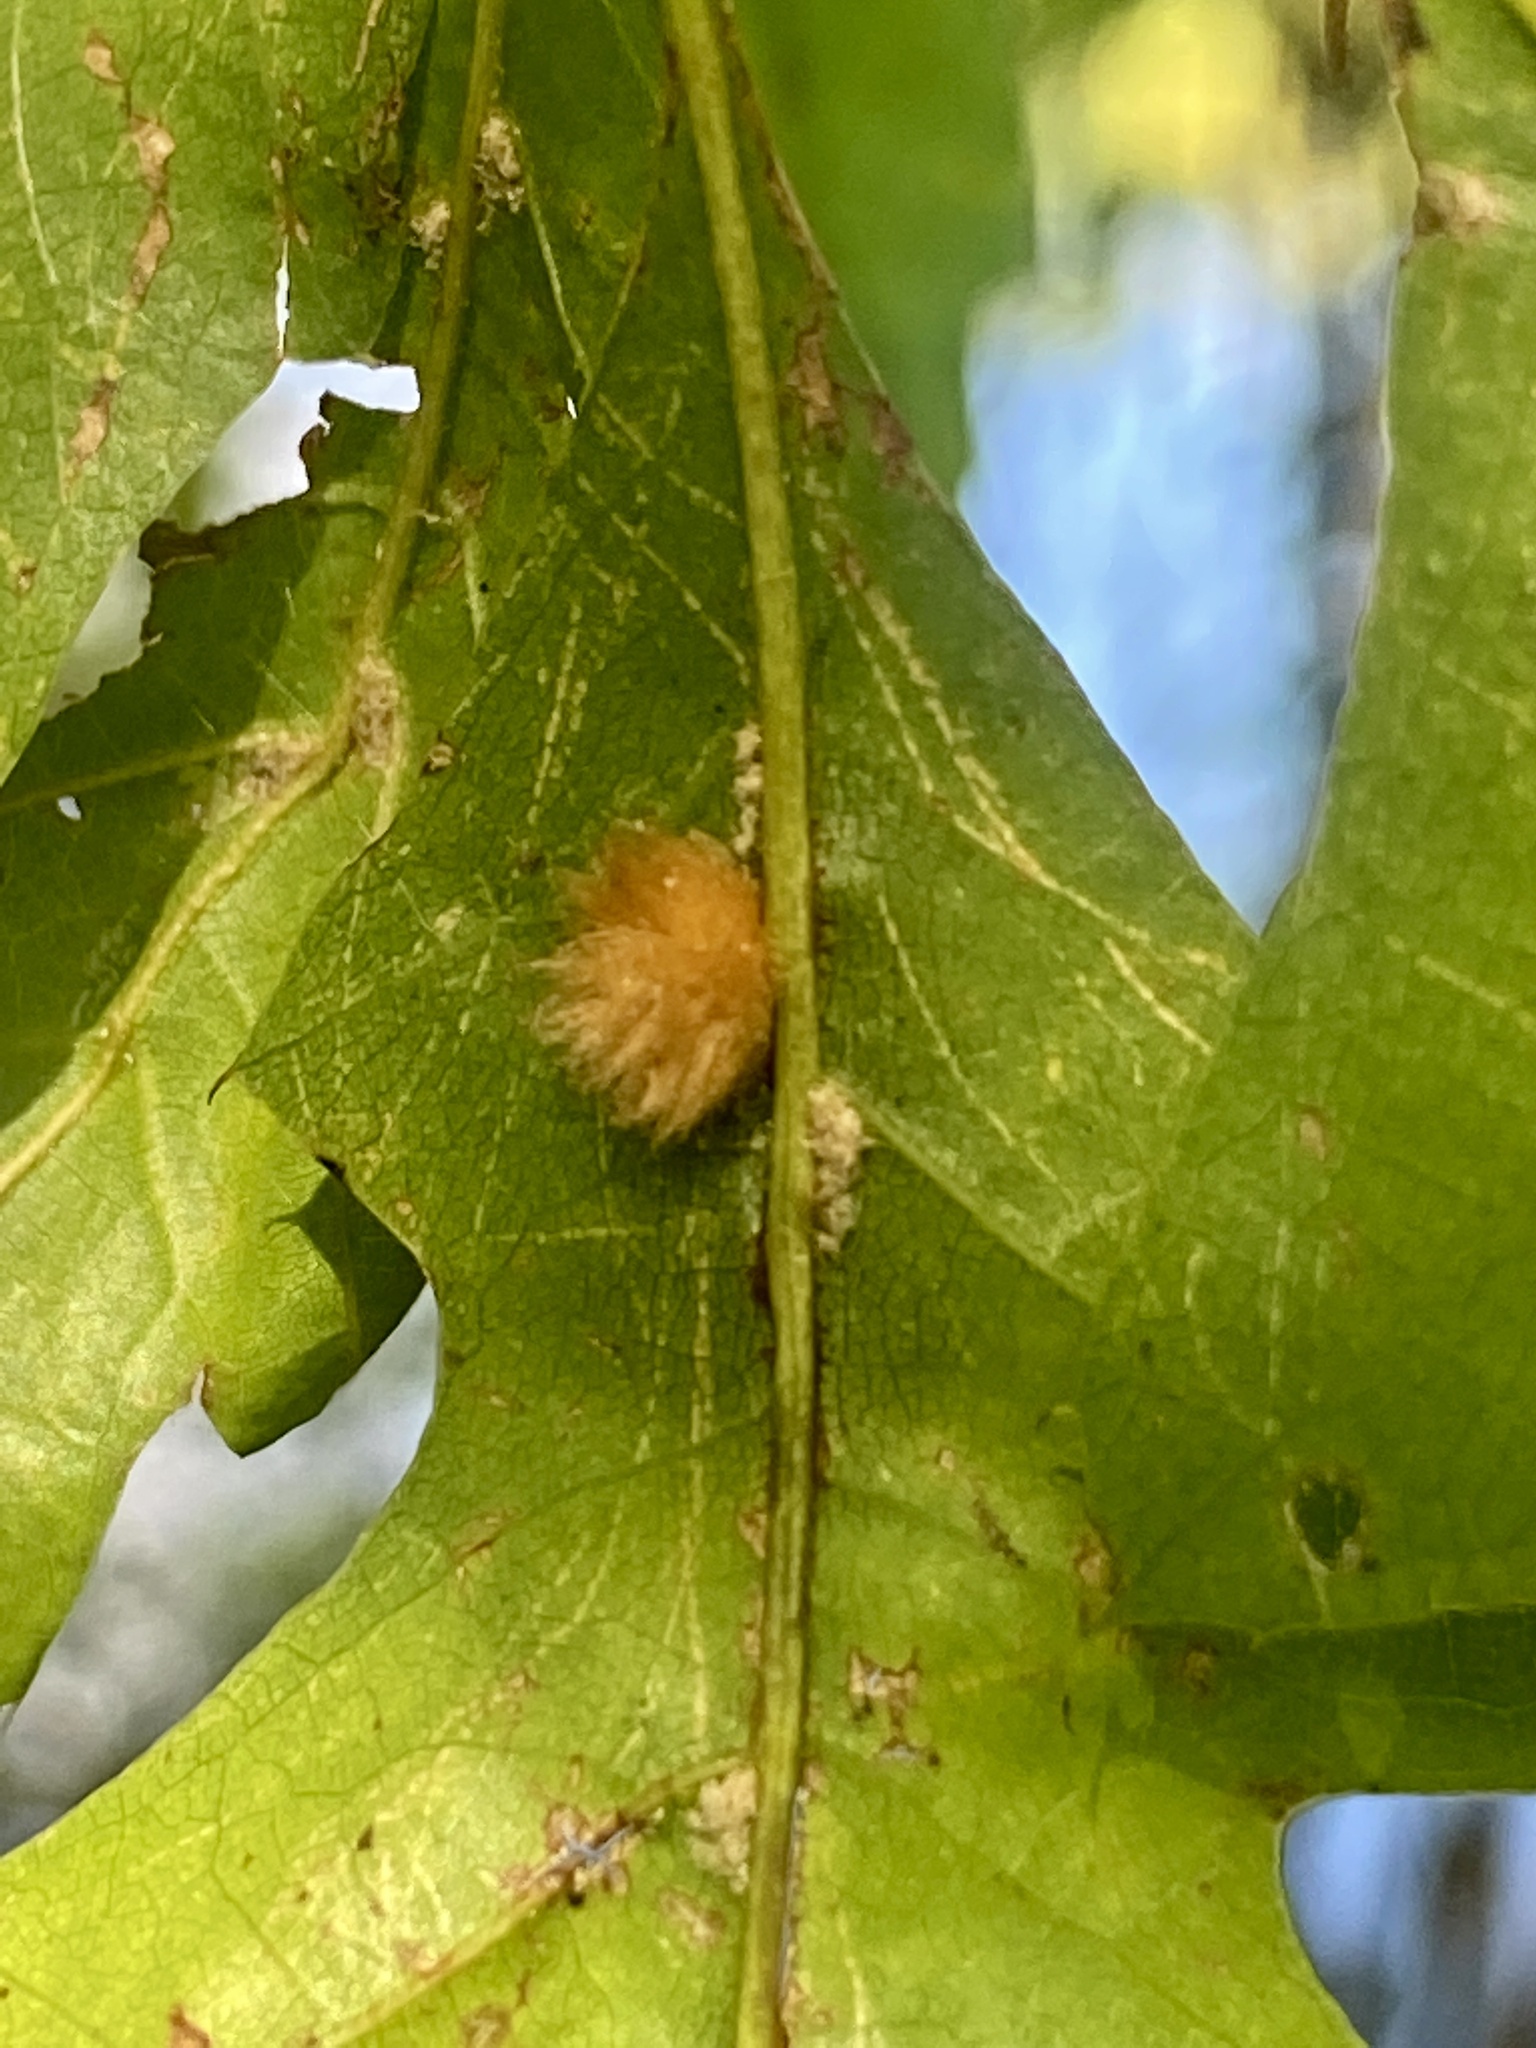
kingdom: Animalia
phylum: Arthropoda
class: Insecta
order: Hymenoptera
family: Cynipidae
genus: Callirhytis
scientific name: Callirhytis
